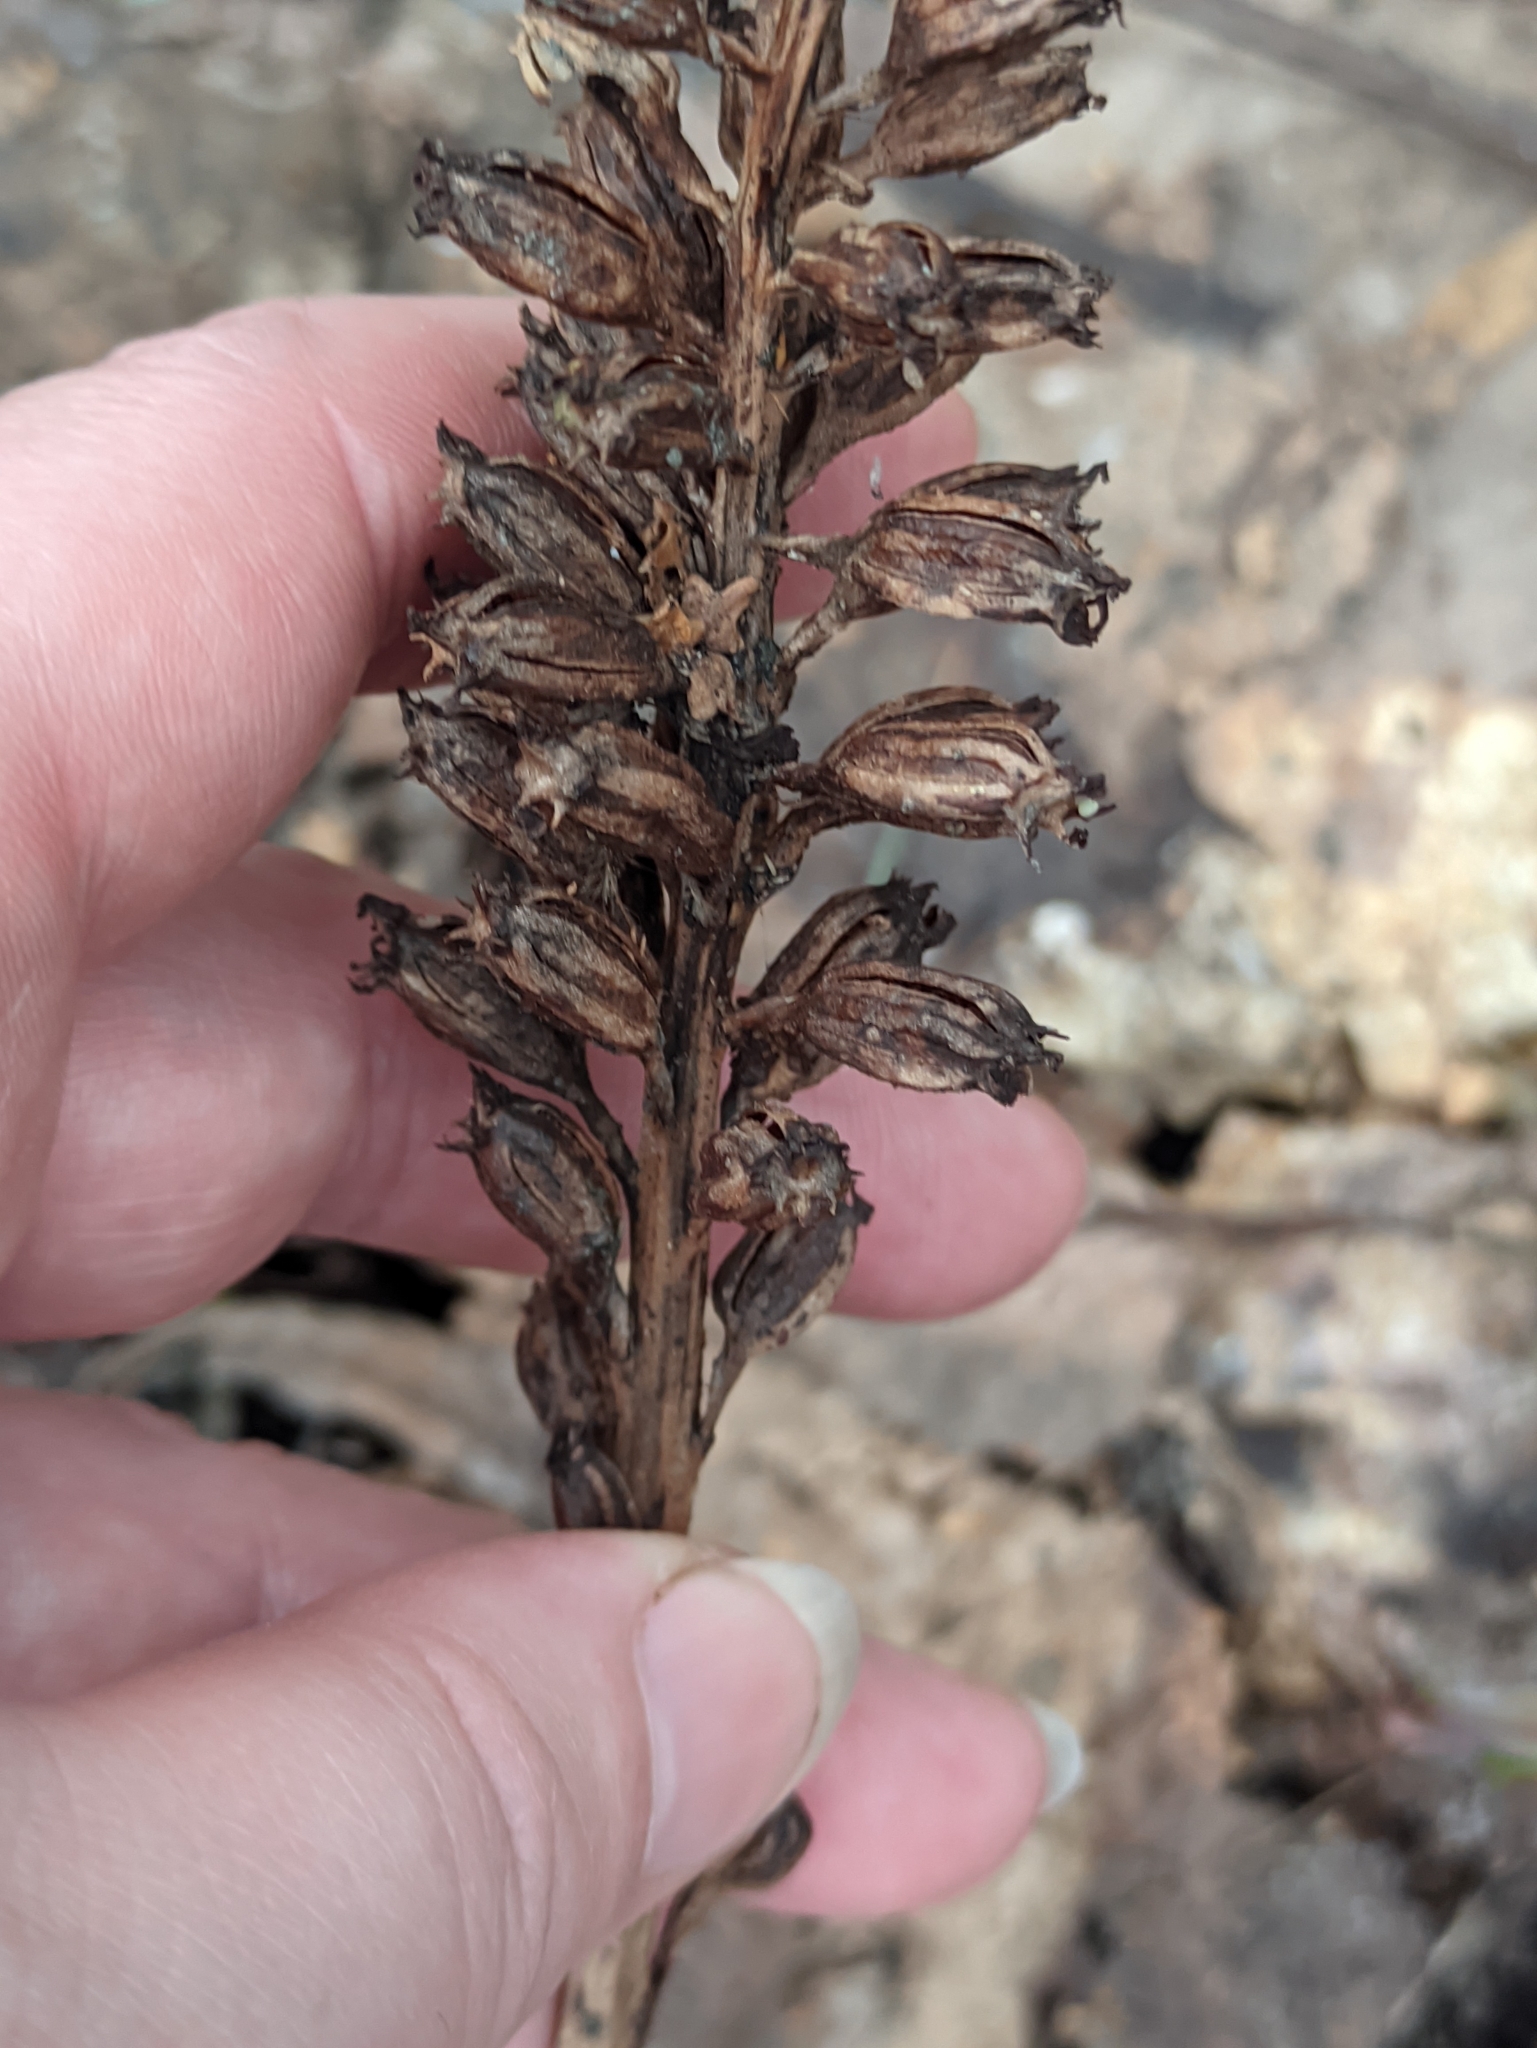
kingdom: Plantae
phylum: Tracheophyta
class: Liliopsida
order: Asparagales
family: Orchidaceae
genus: Neottia
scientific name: Neottia nidus-avis
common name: Bird's-nest orchid
